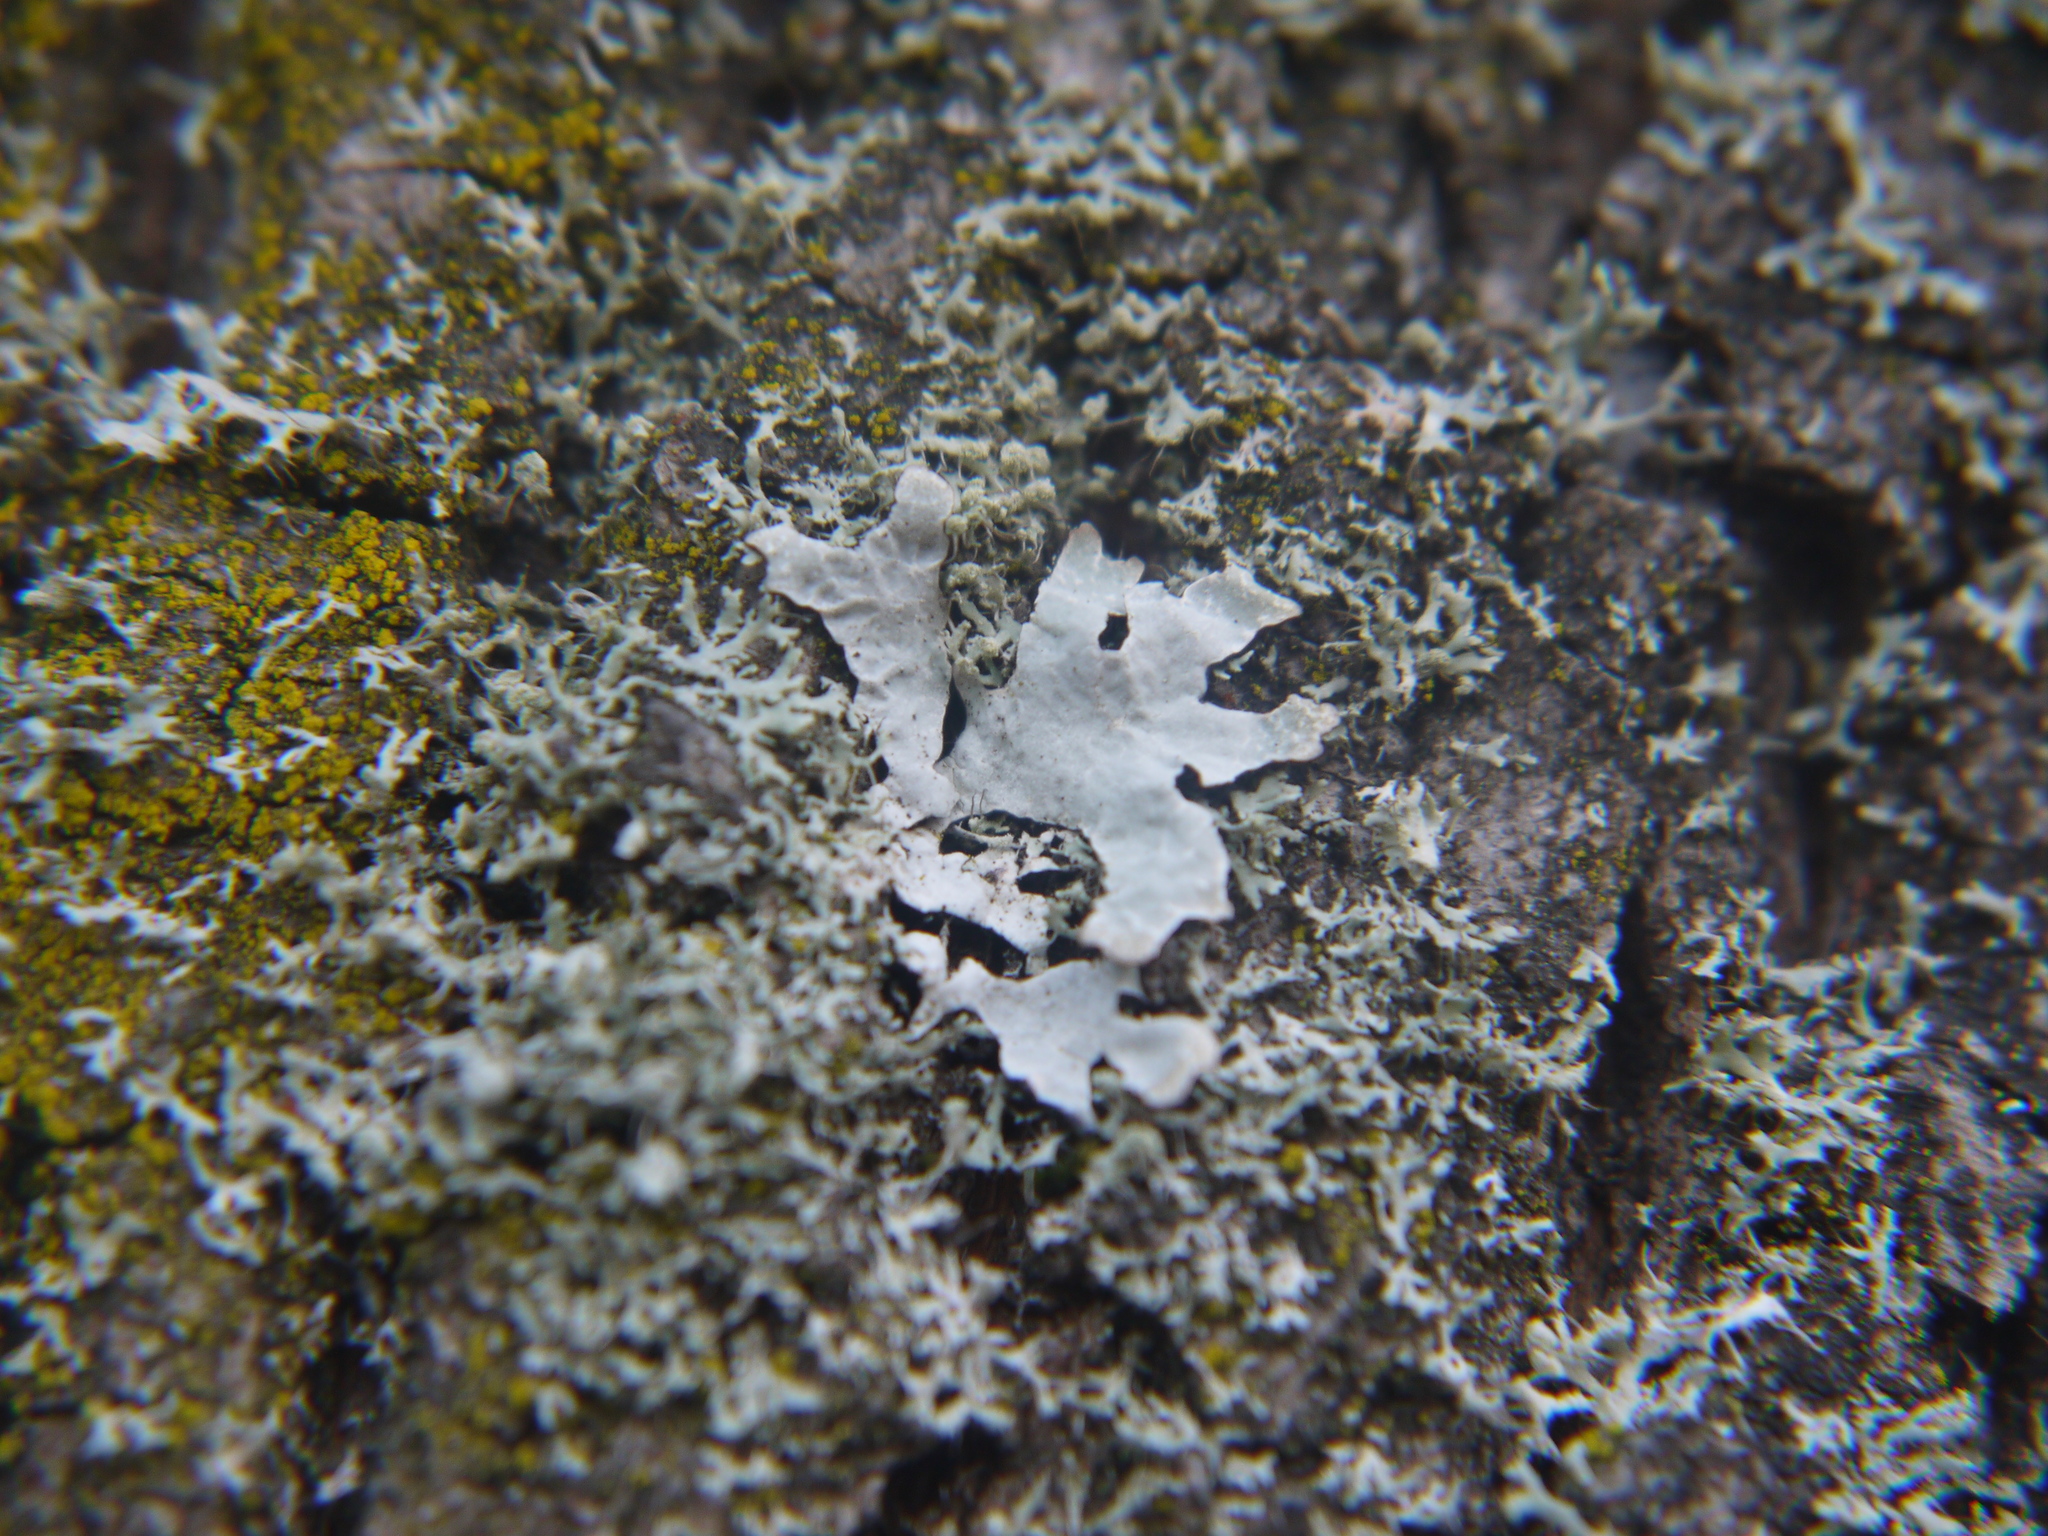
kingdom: Fungi
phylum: Ascomycota
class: Lecanoromycetes
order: Lecanorales
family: Parmeliaceae
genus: Parmelia
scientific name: Parmelia sulcata
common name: Netted shield lichen
